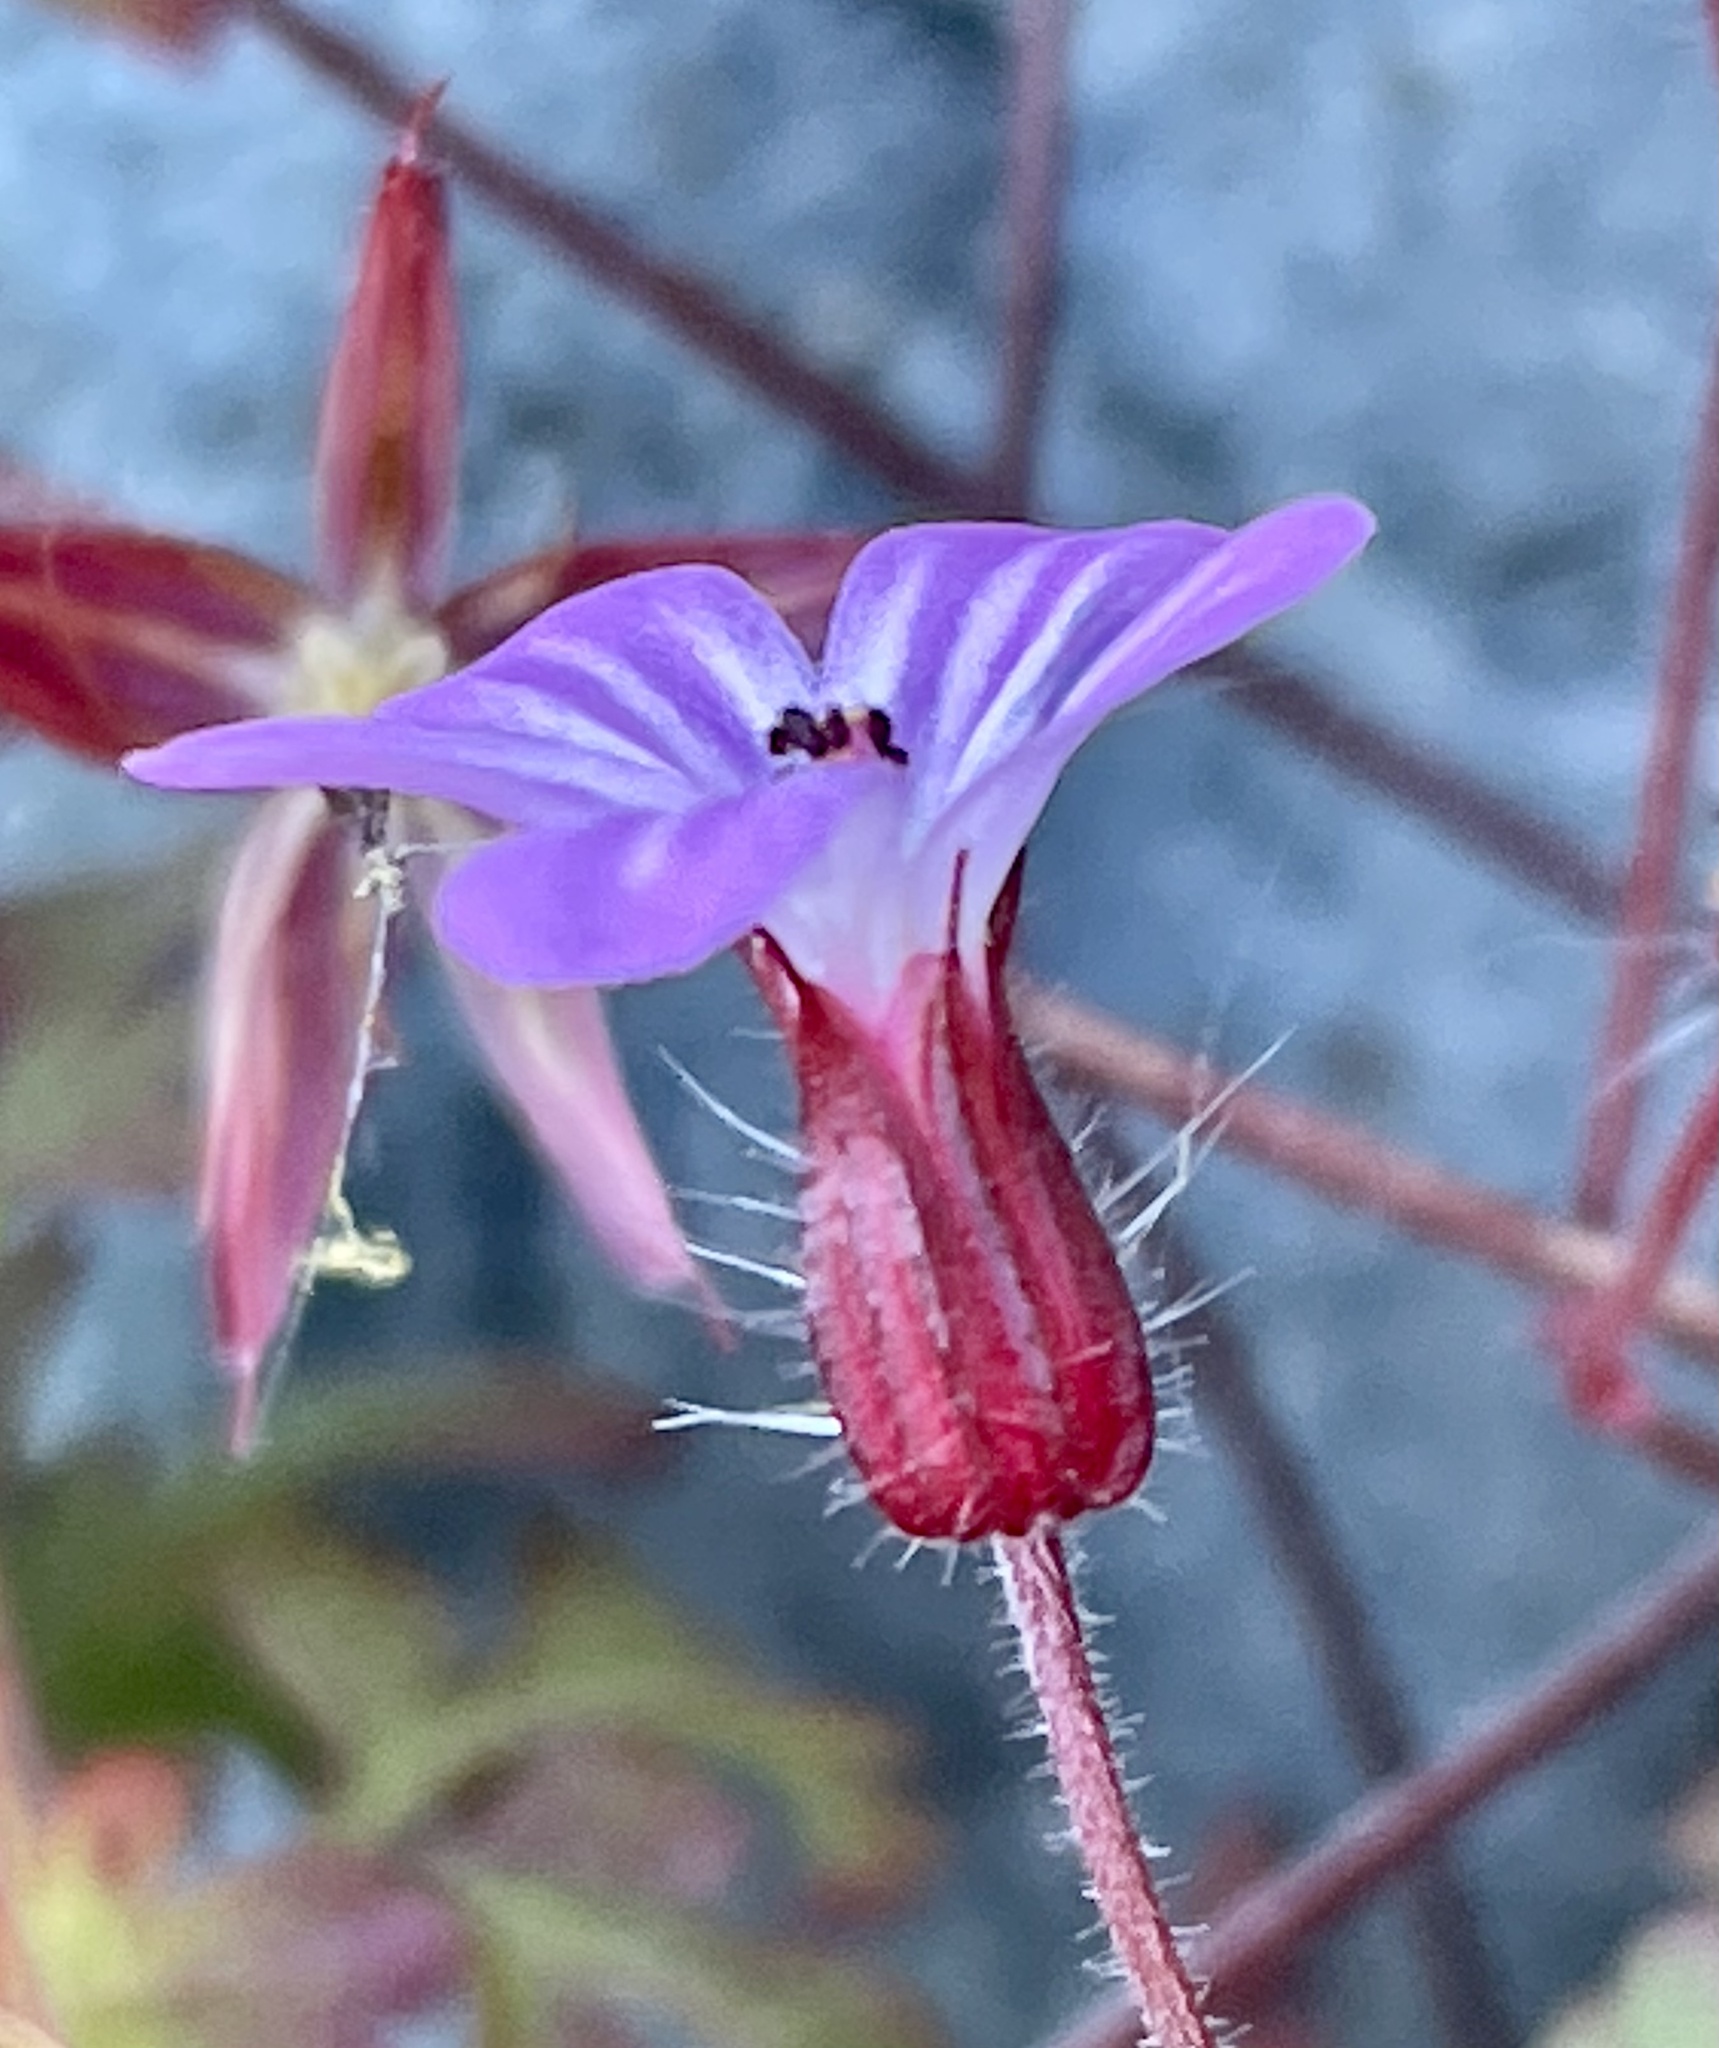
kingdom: Plantae
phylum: Tracheophyta
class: Magnoliopsida
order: Geraniales
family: Geraniaceae
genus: Geranium
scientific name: Geranium robertianum
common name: Herb-robert
